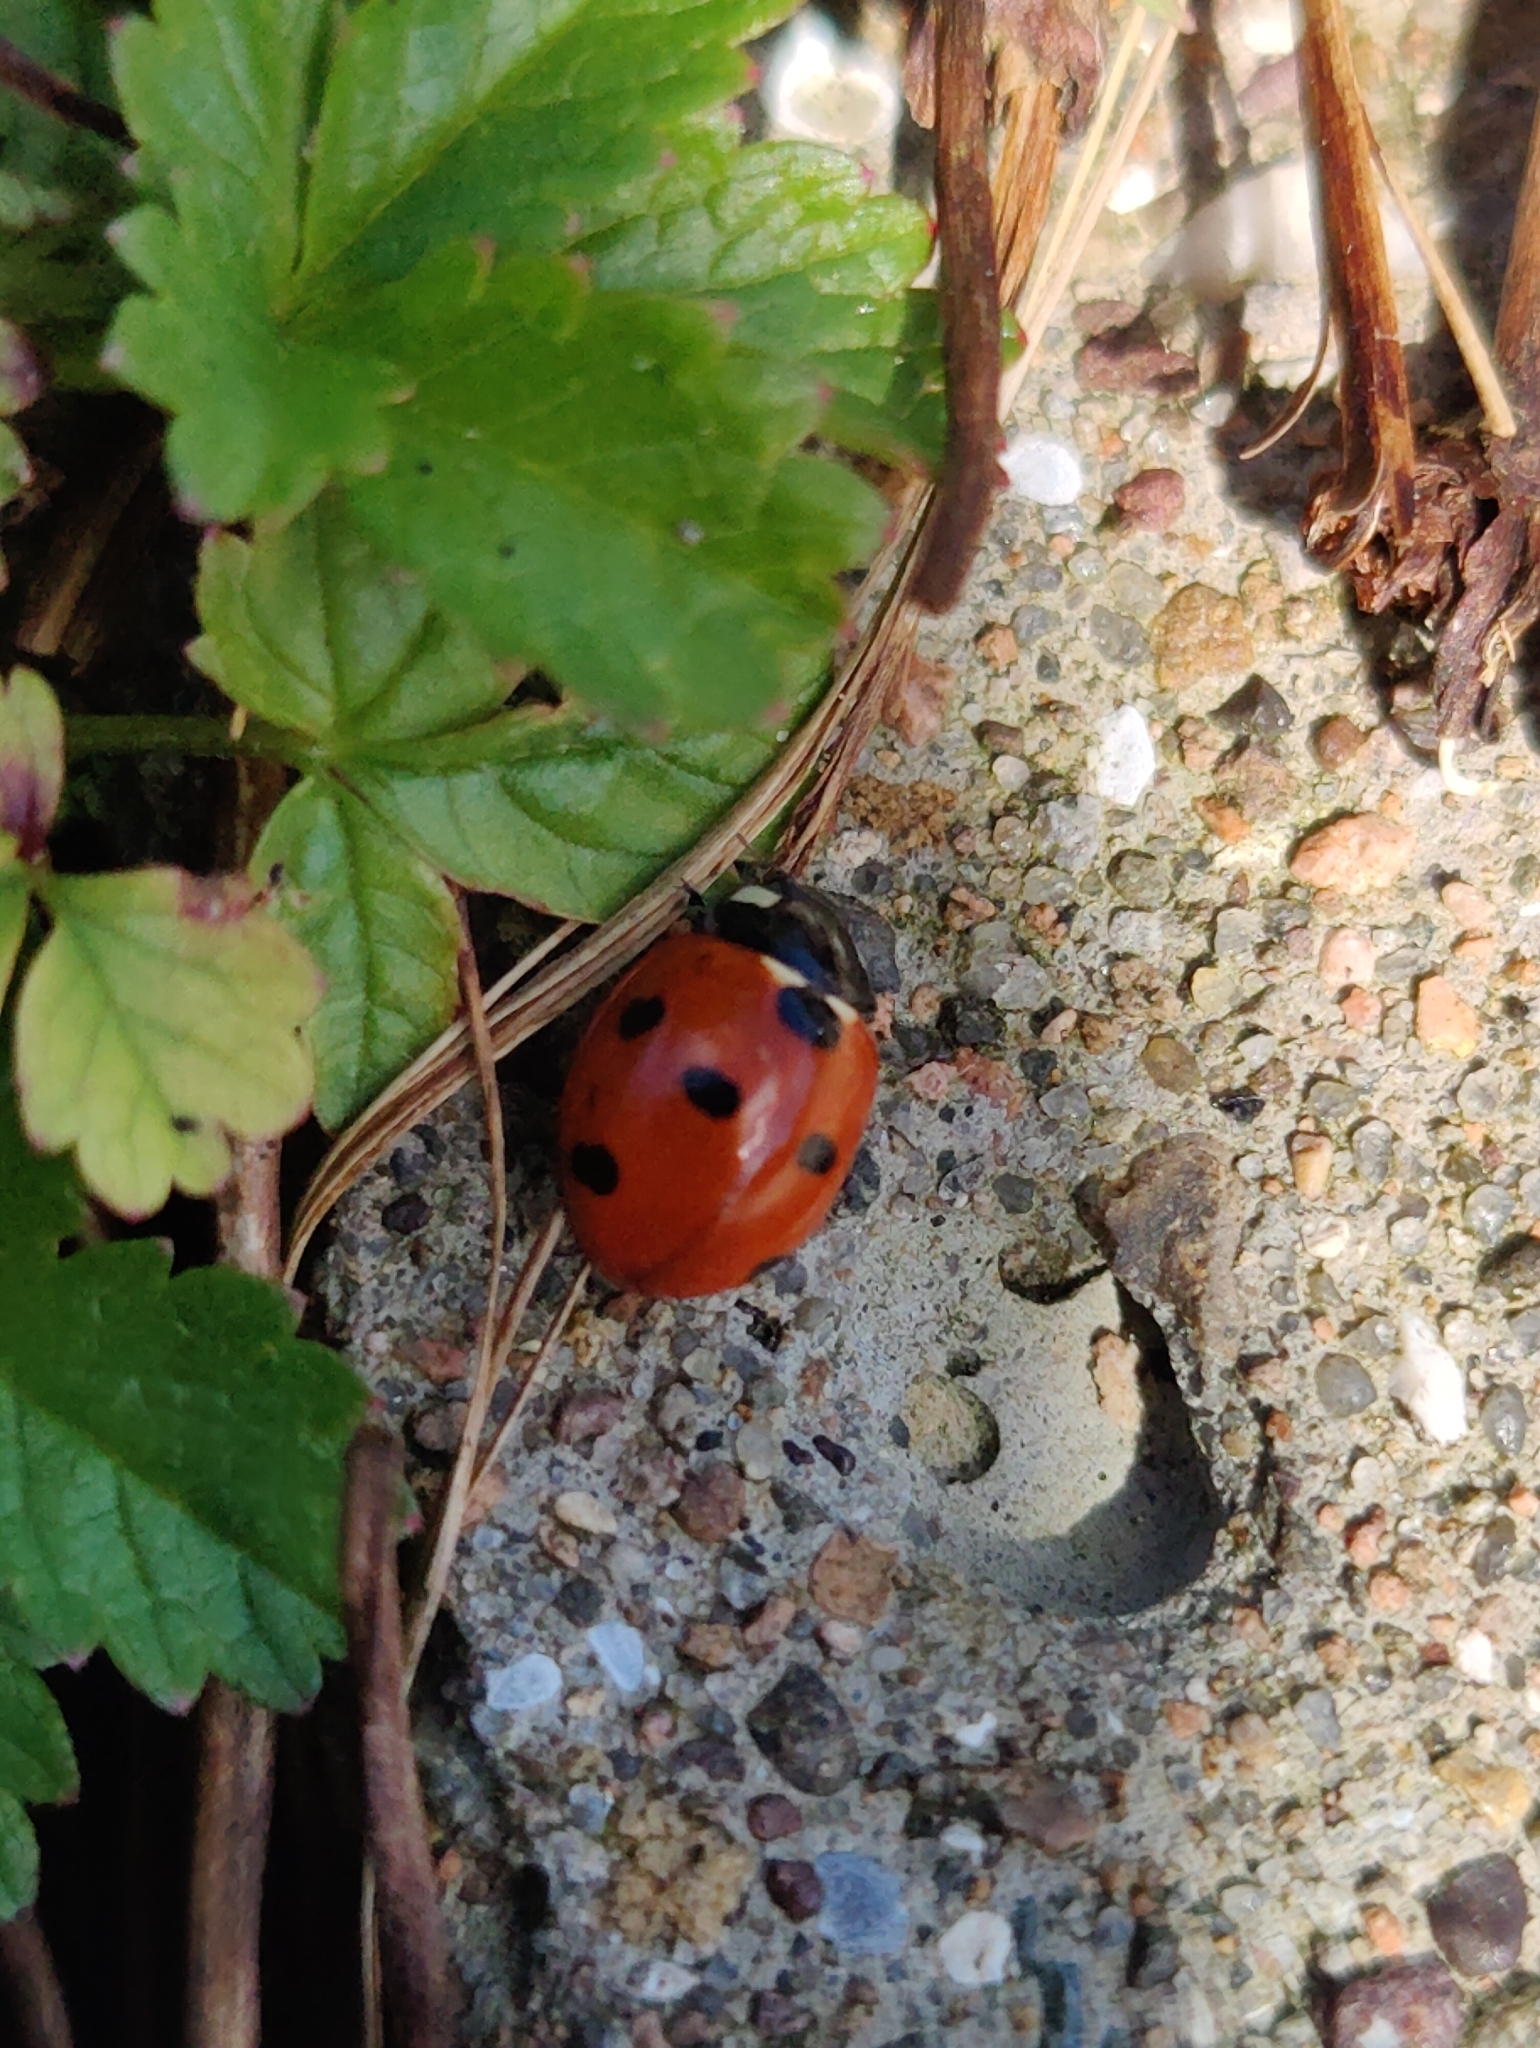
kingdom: Animalia
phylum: Arthropoda
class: Insecta
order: Coleoptera
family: Coccinellidae
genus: Coccinella
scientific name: Coccinella septempunctata
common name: Sevenspotted lady beetle
